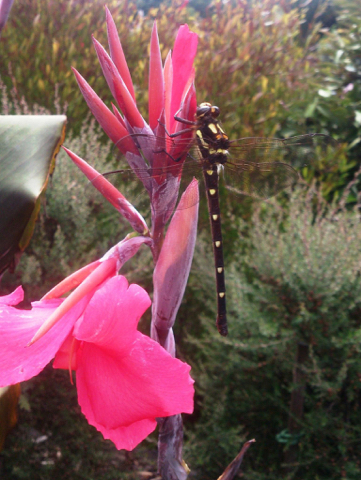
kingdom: Animalia
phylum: Arthropoda
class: Insecta
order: Odonata
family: Petaluridae
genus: Uropetala
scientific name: Uropetala carovei
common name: Bush giant dragonfly
